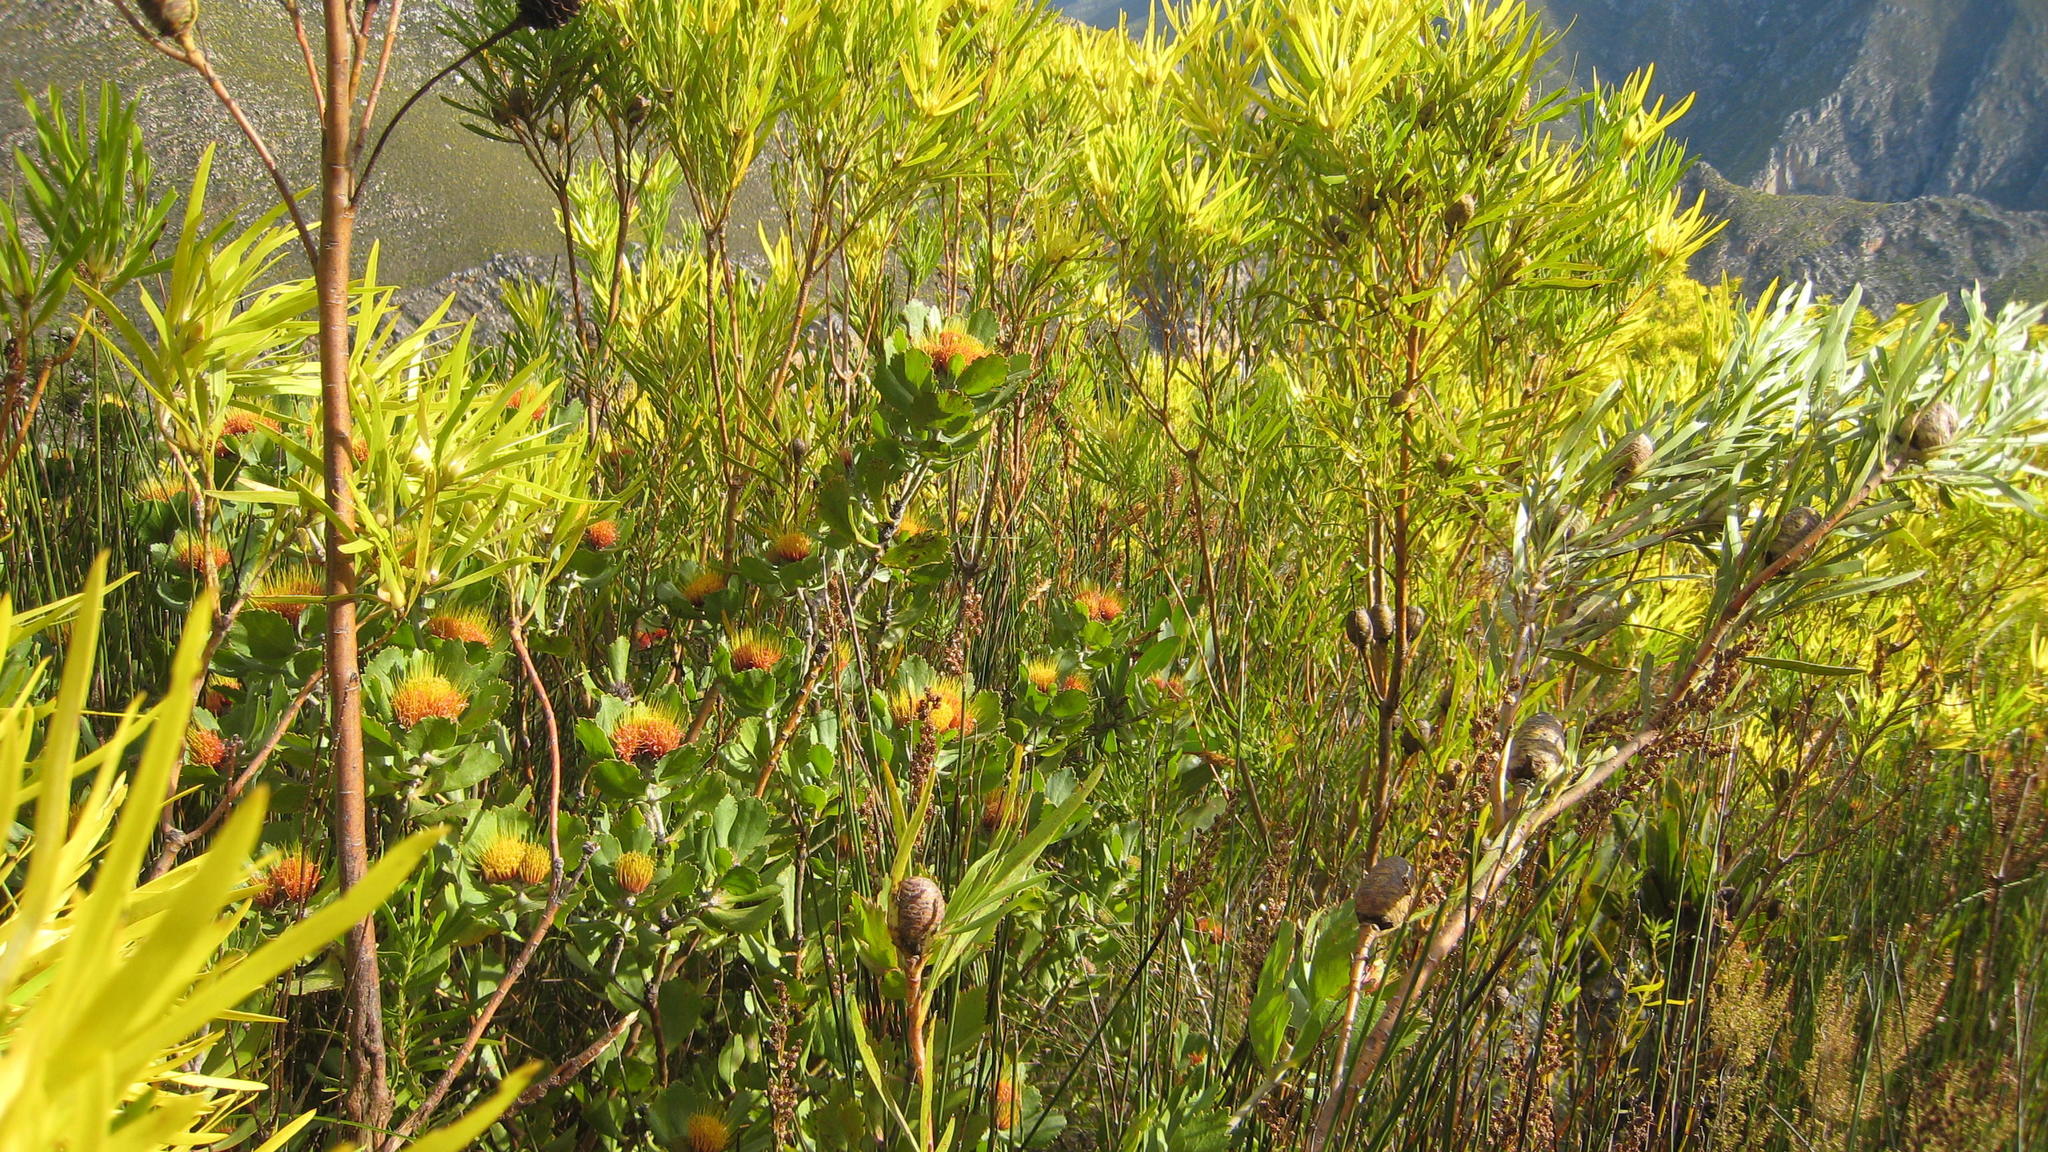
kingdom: Plantae
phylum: Tracheophyta
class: Magnoliopsida
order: Proteales
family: Proteaceae
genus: Leucadendron
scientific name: Leucadendron eucalyptifolium
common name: Gum-leaved conebush
